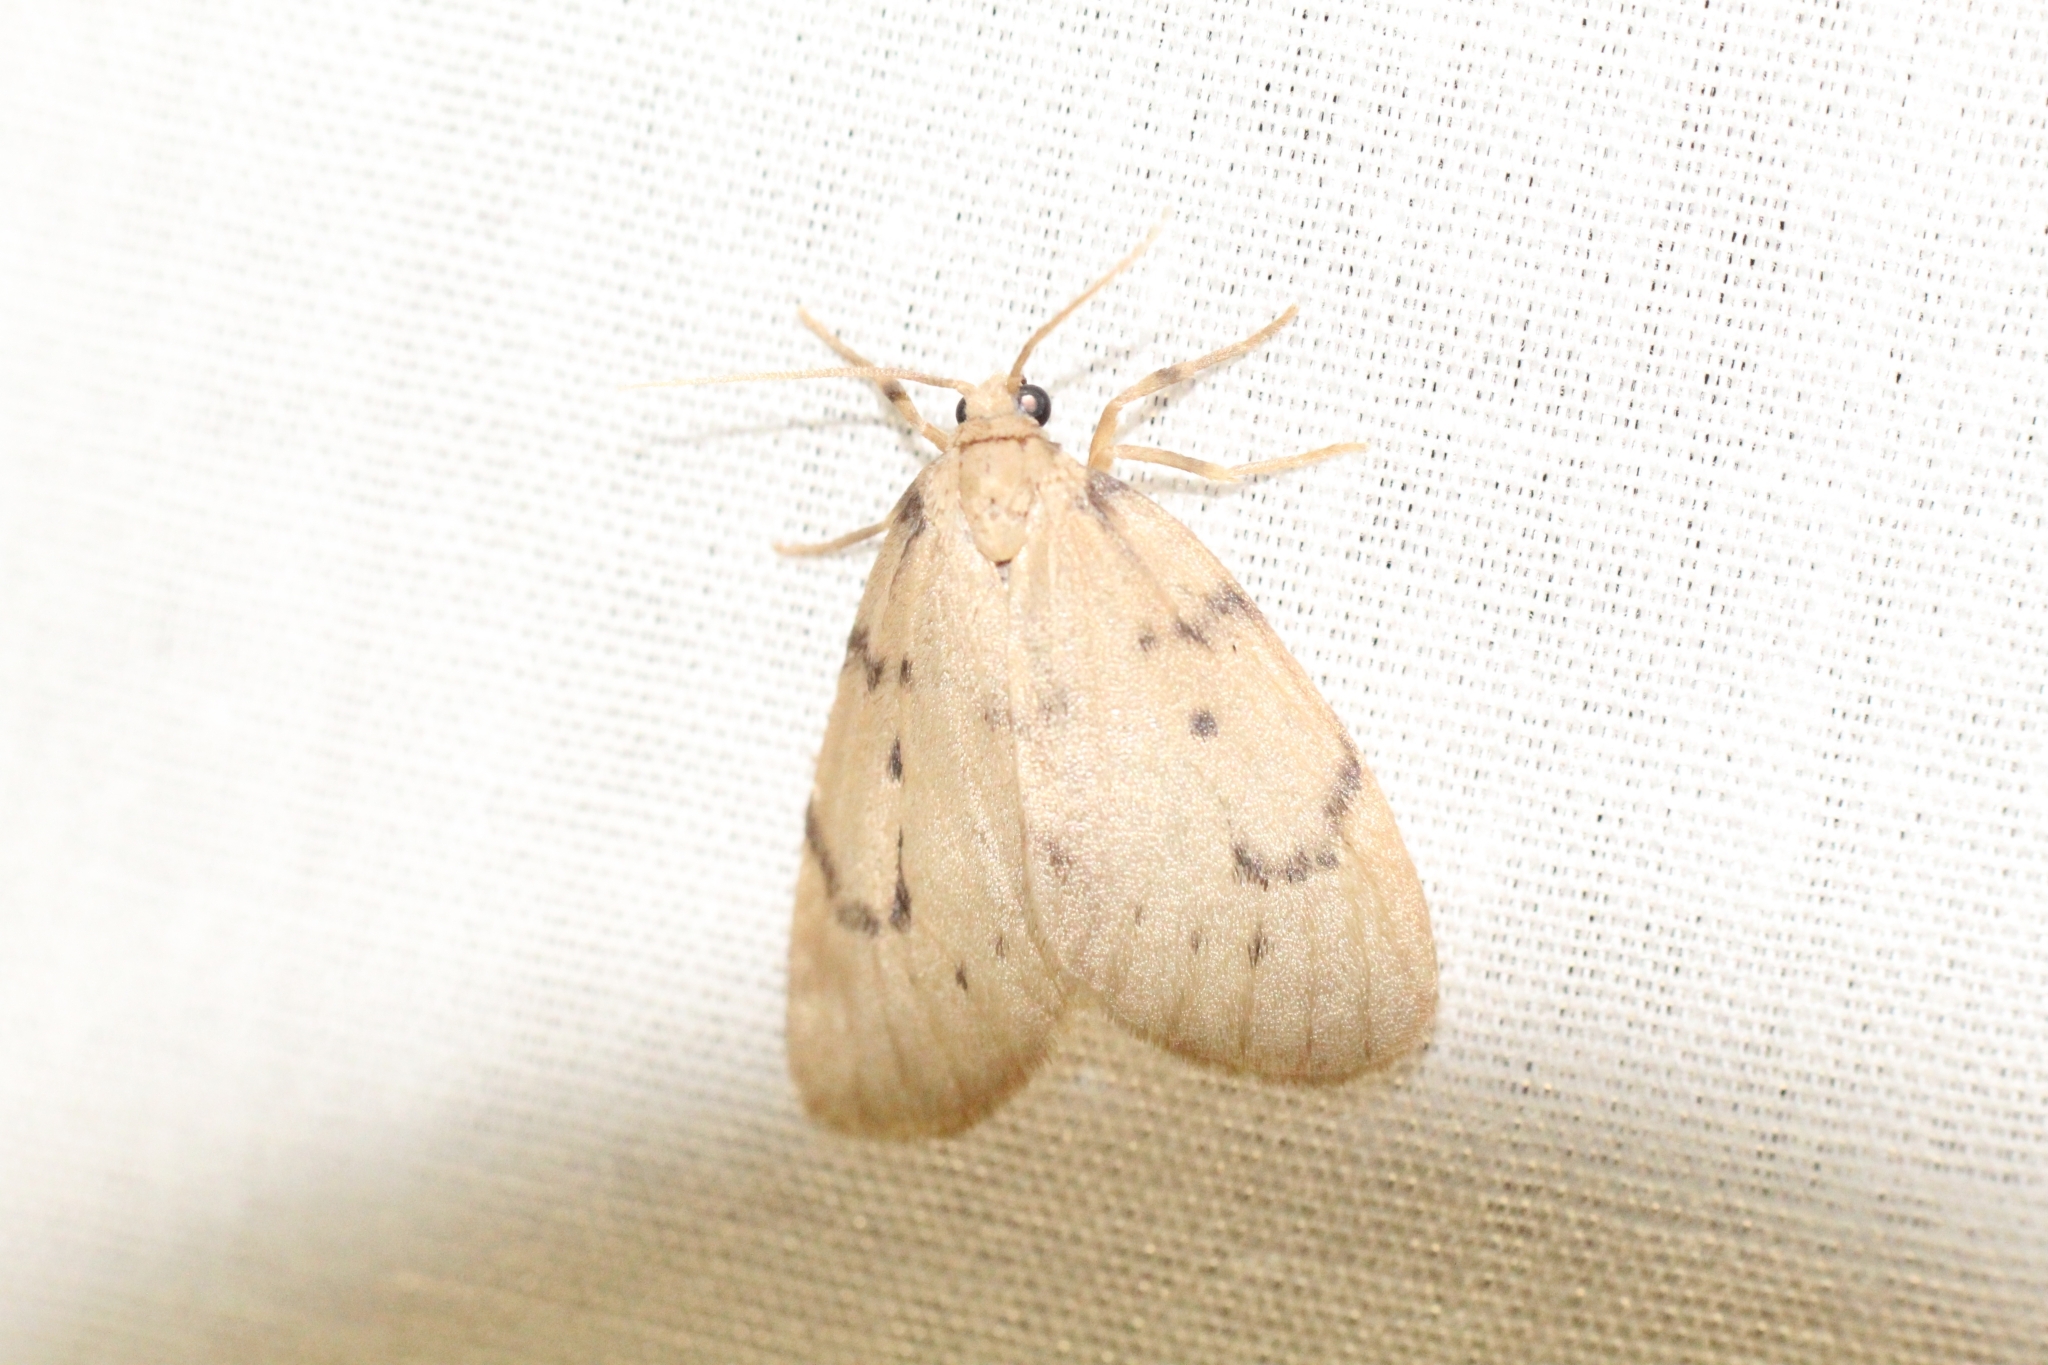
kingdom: Animalia
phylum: Arthropoda
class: Insecta
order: Lepidoptera
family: Erebidae
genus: Paidia
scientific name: Paidia rica
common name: Glaucous muslin
